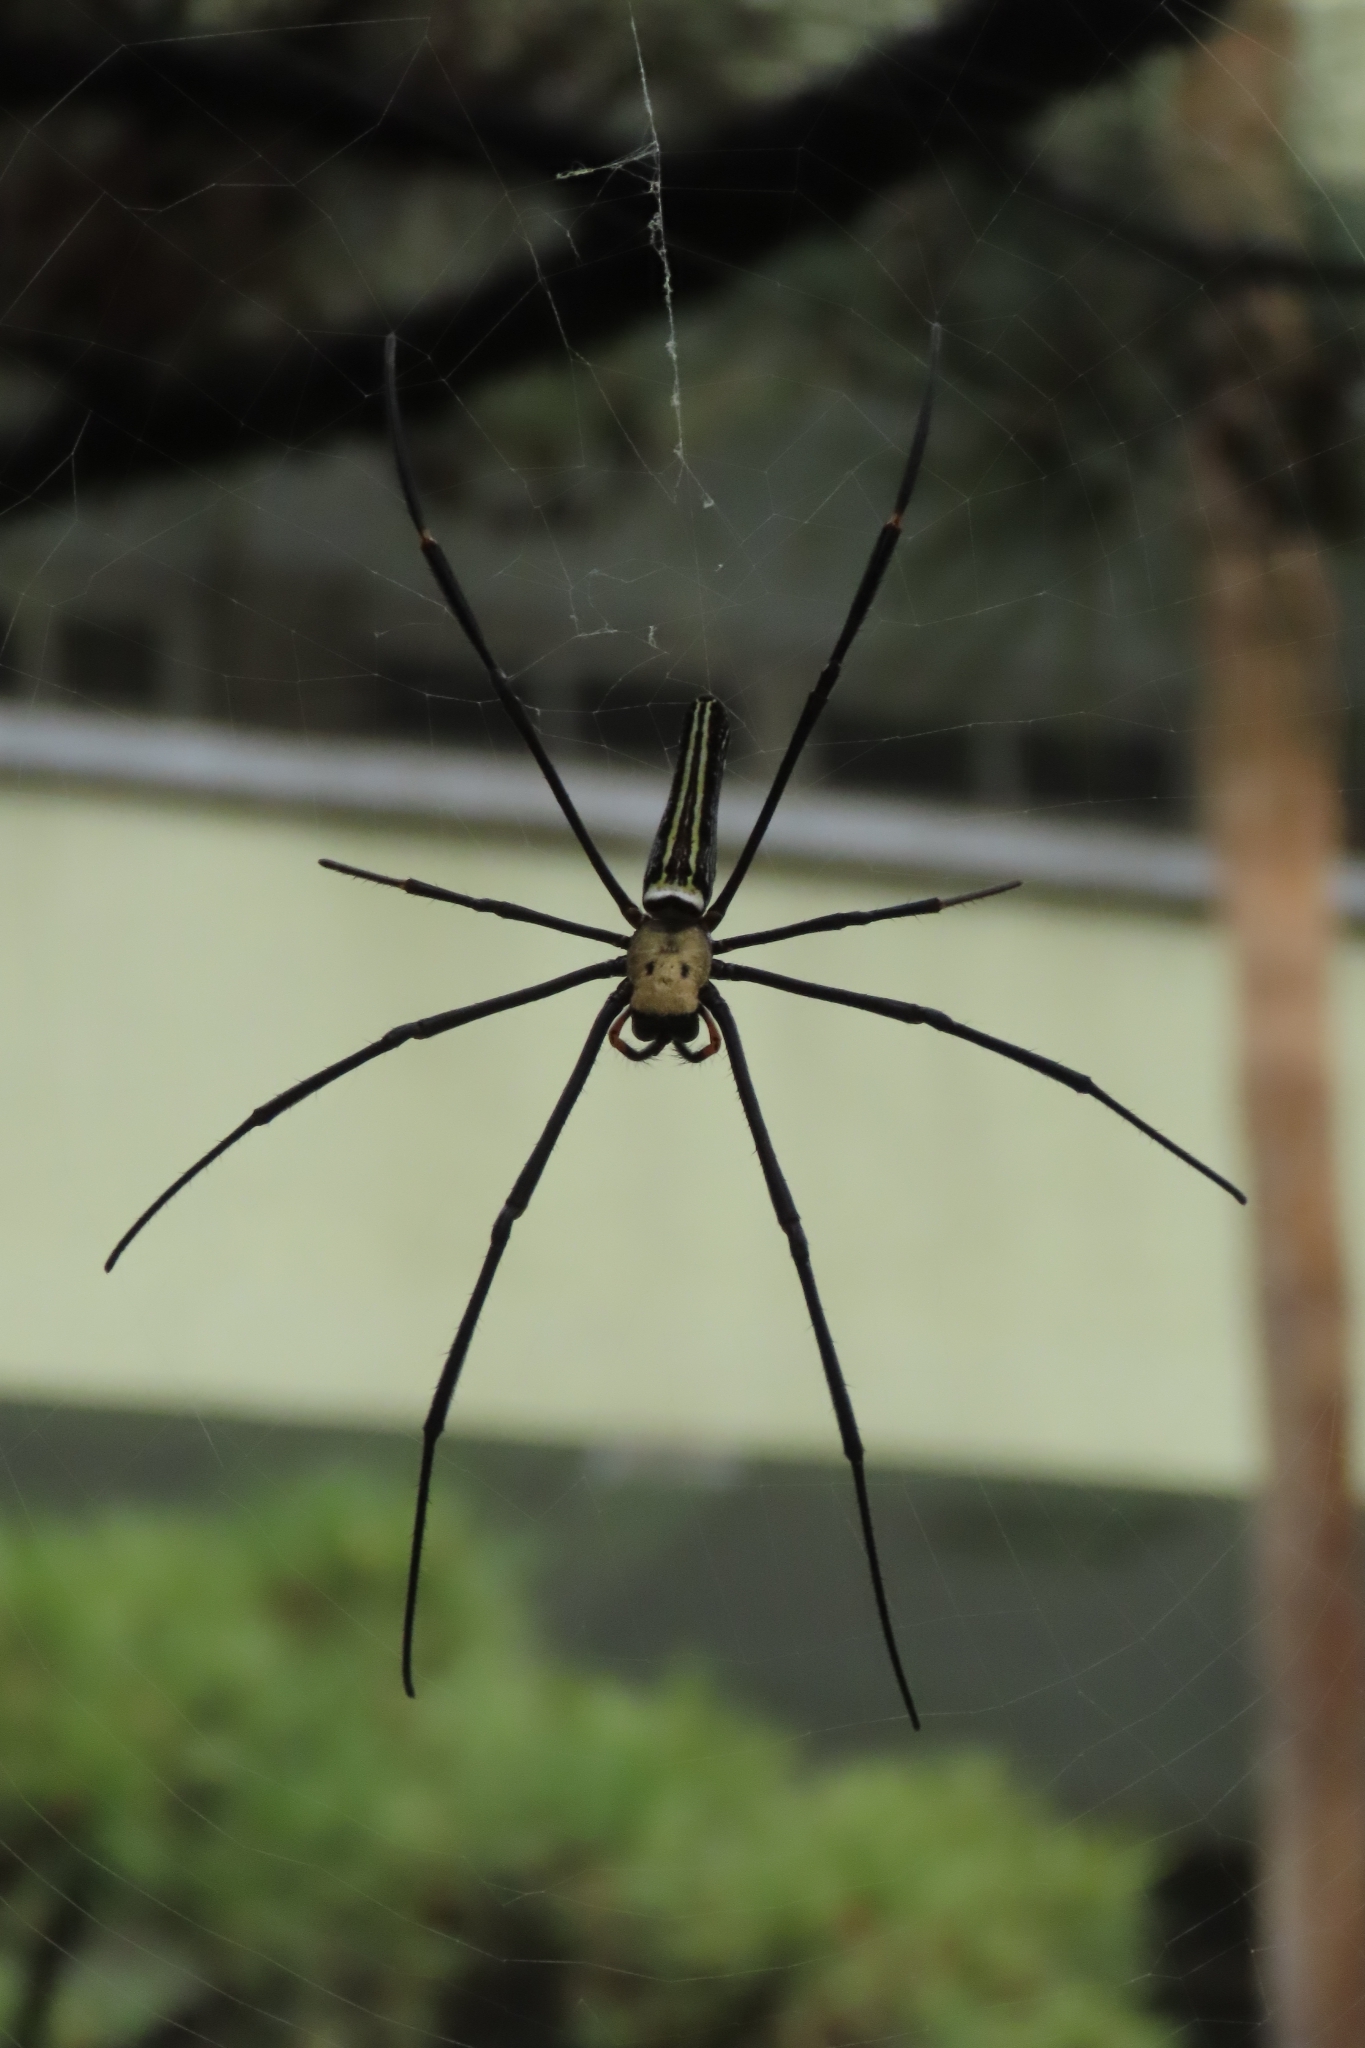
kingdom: Animalia
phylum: Arthropoda
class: Arachnida
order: Araneae
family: Araneidae
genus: Nephila
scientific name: Nephila pilipes
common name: Giant golden orb weaver
